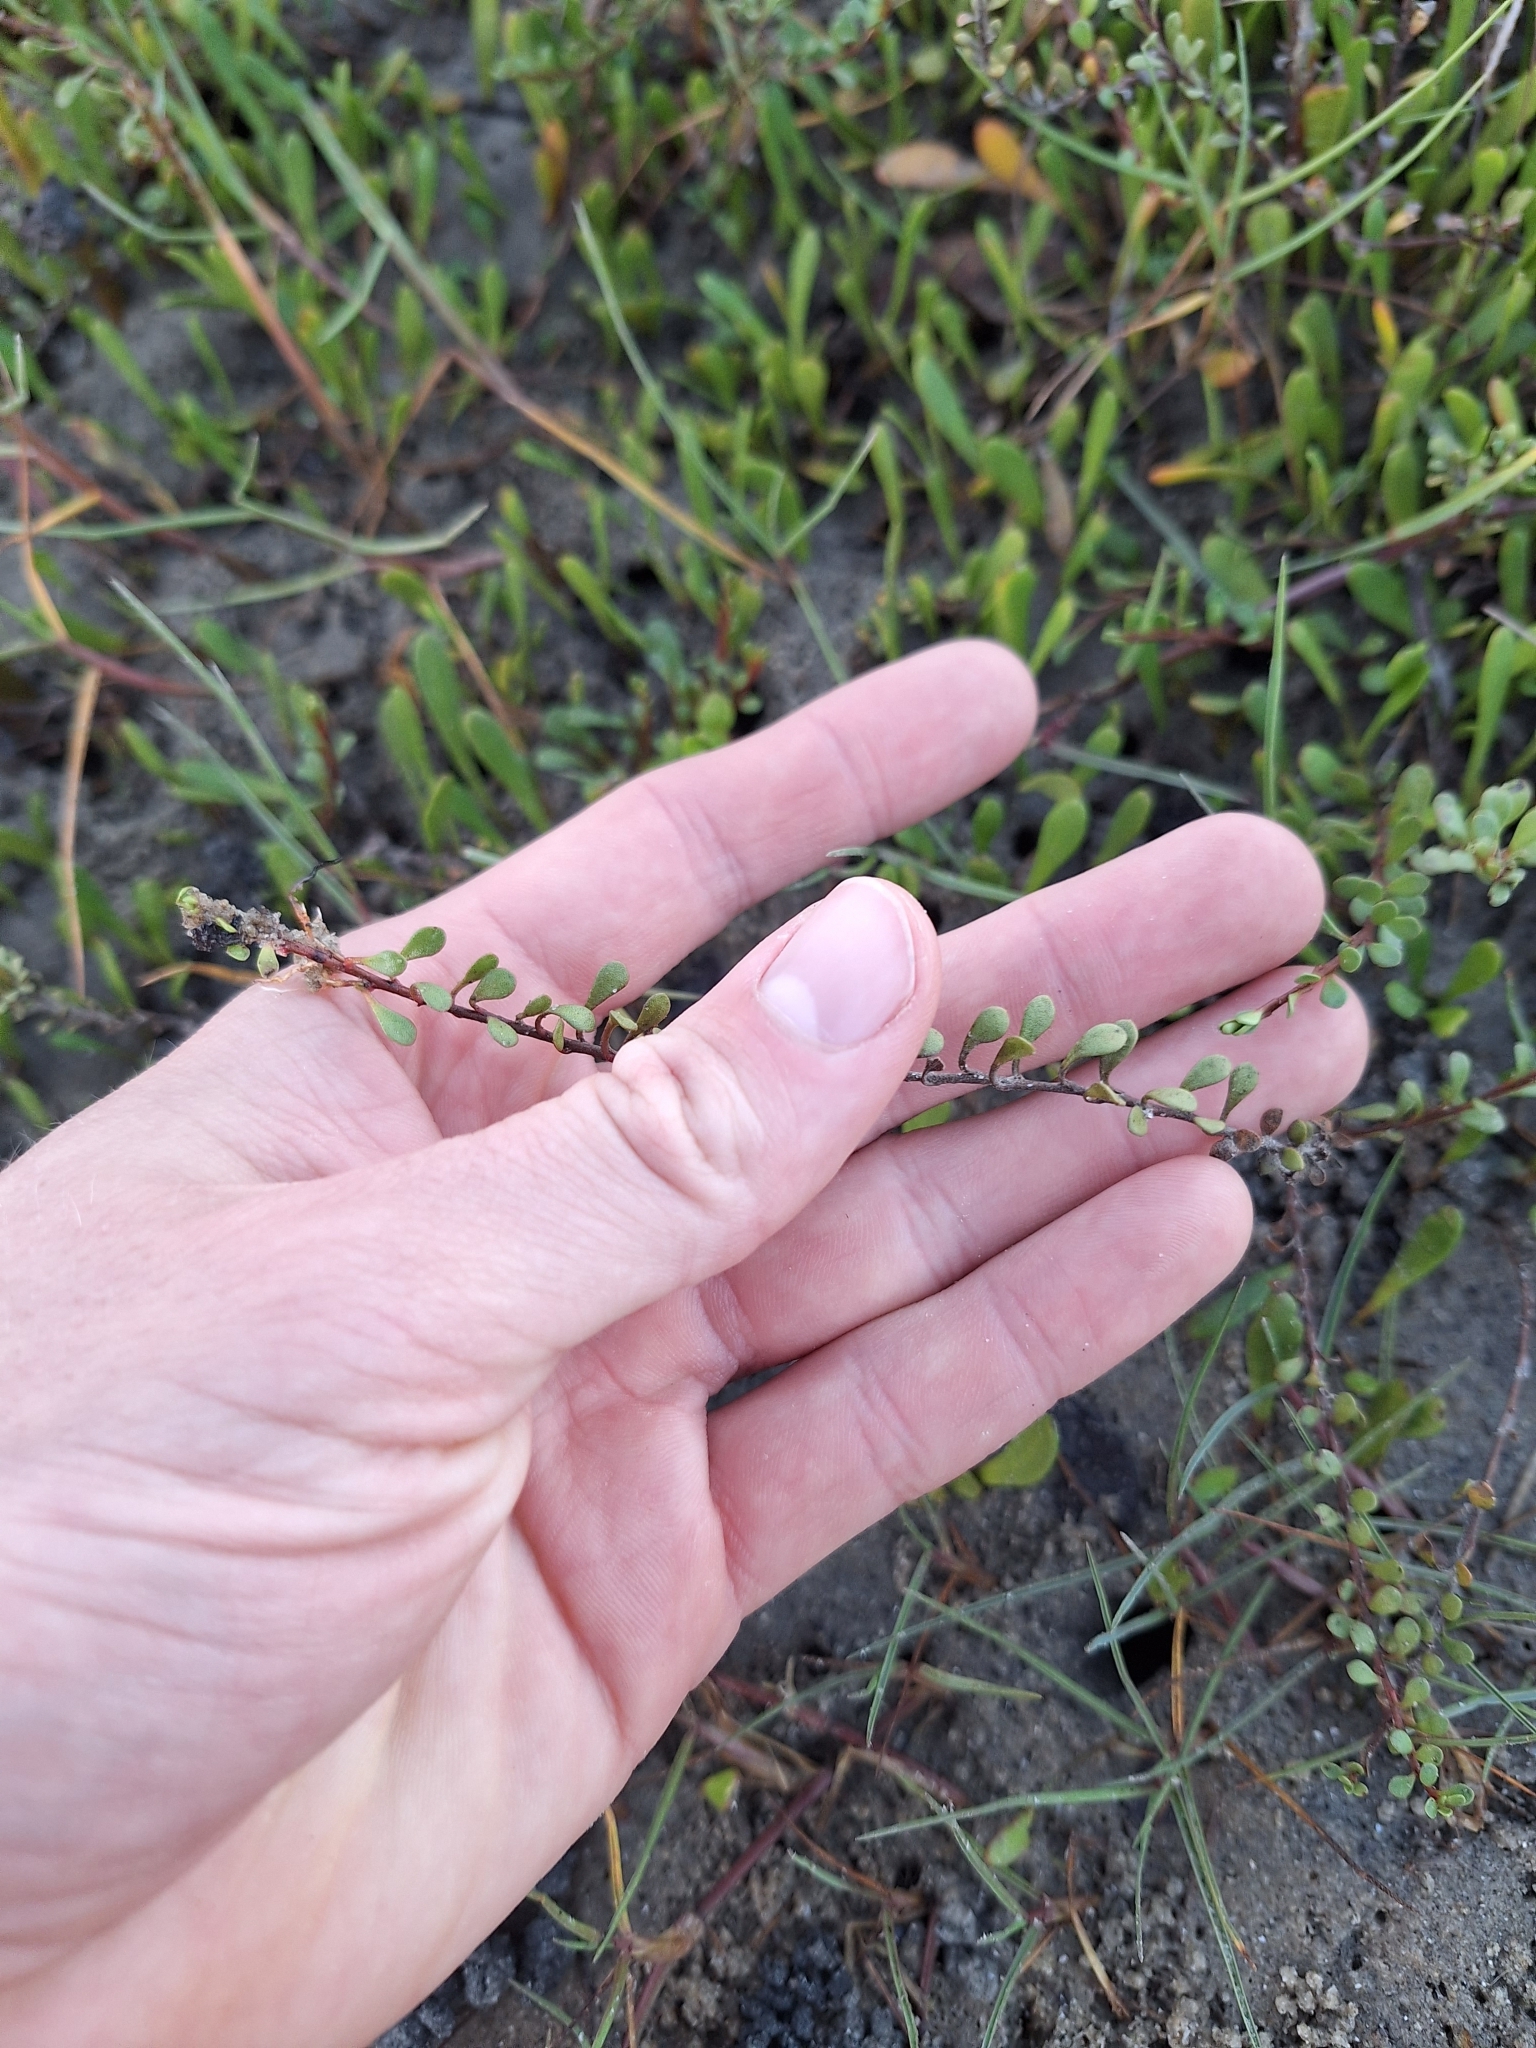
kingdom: Plantae
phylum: Tracheophyta
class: Magnoliopsida
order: Ericales
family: Primulaceae
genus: Samolus
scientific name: Samolus repens
